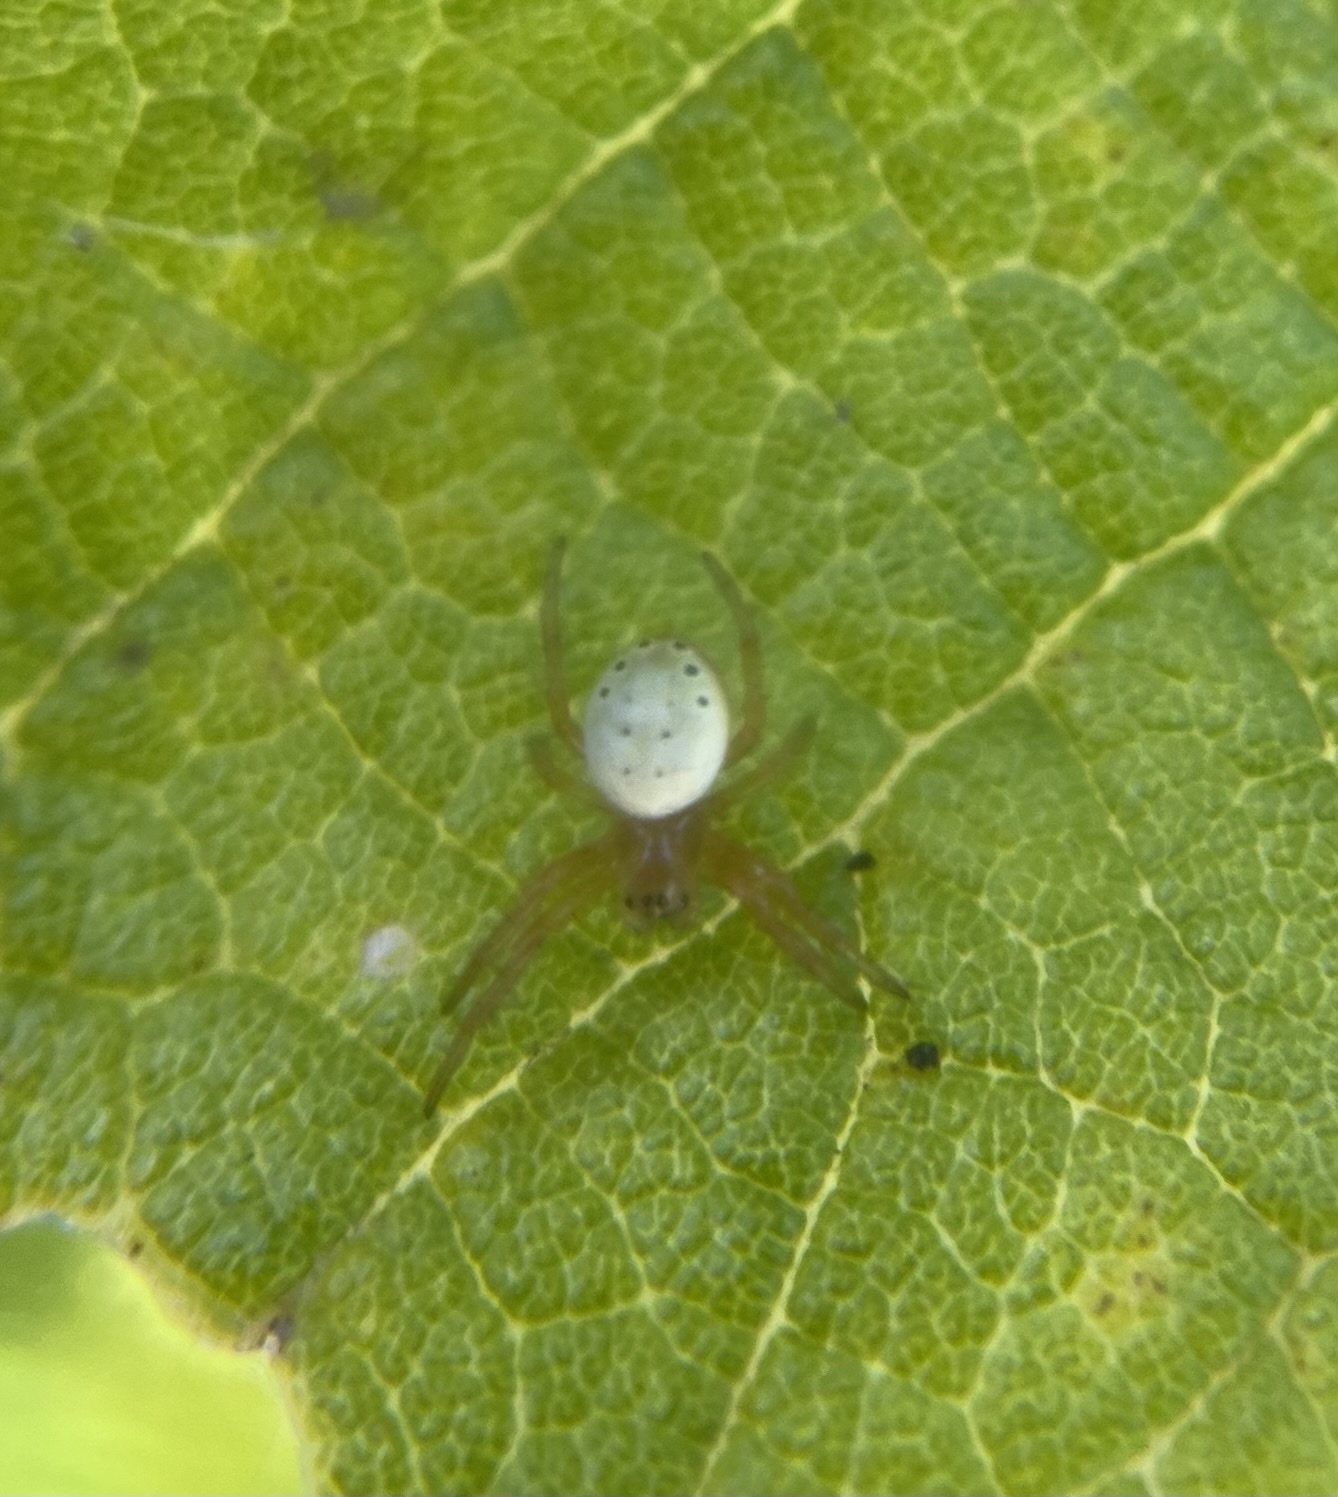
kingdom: Animalia
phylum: Arthropoda
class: Arachnida
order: Araneae
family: Araneidae
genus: Araniella
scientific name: Araniella displicata
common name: Sixspotted orb weaver
